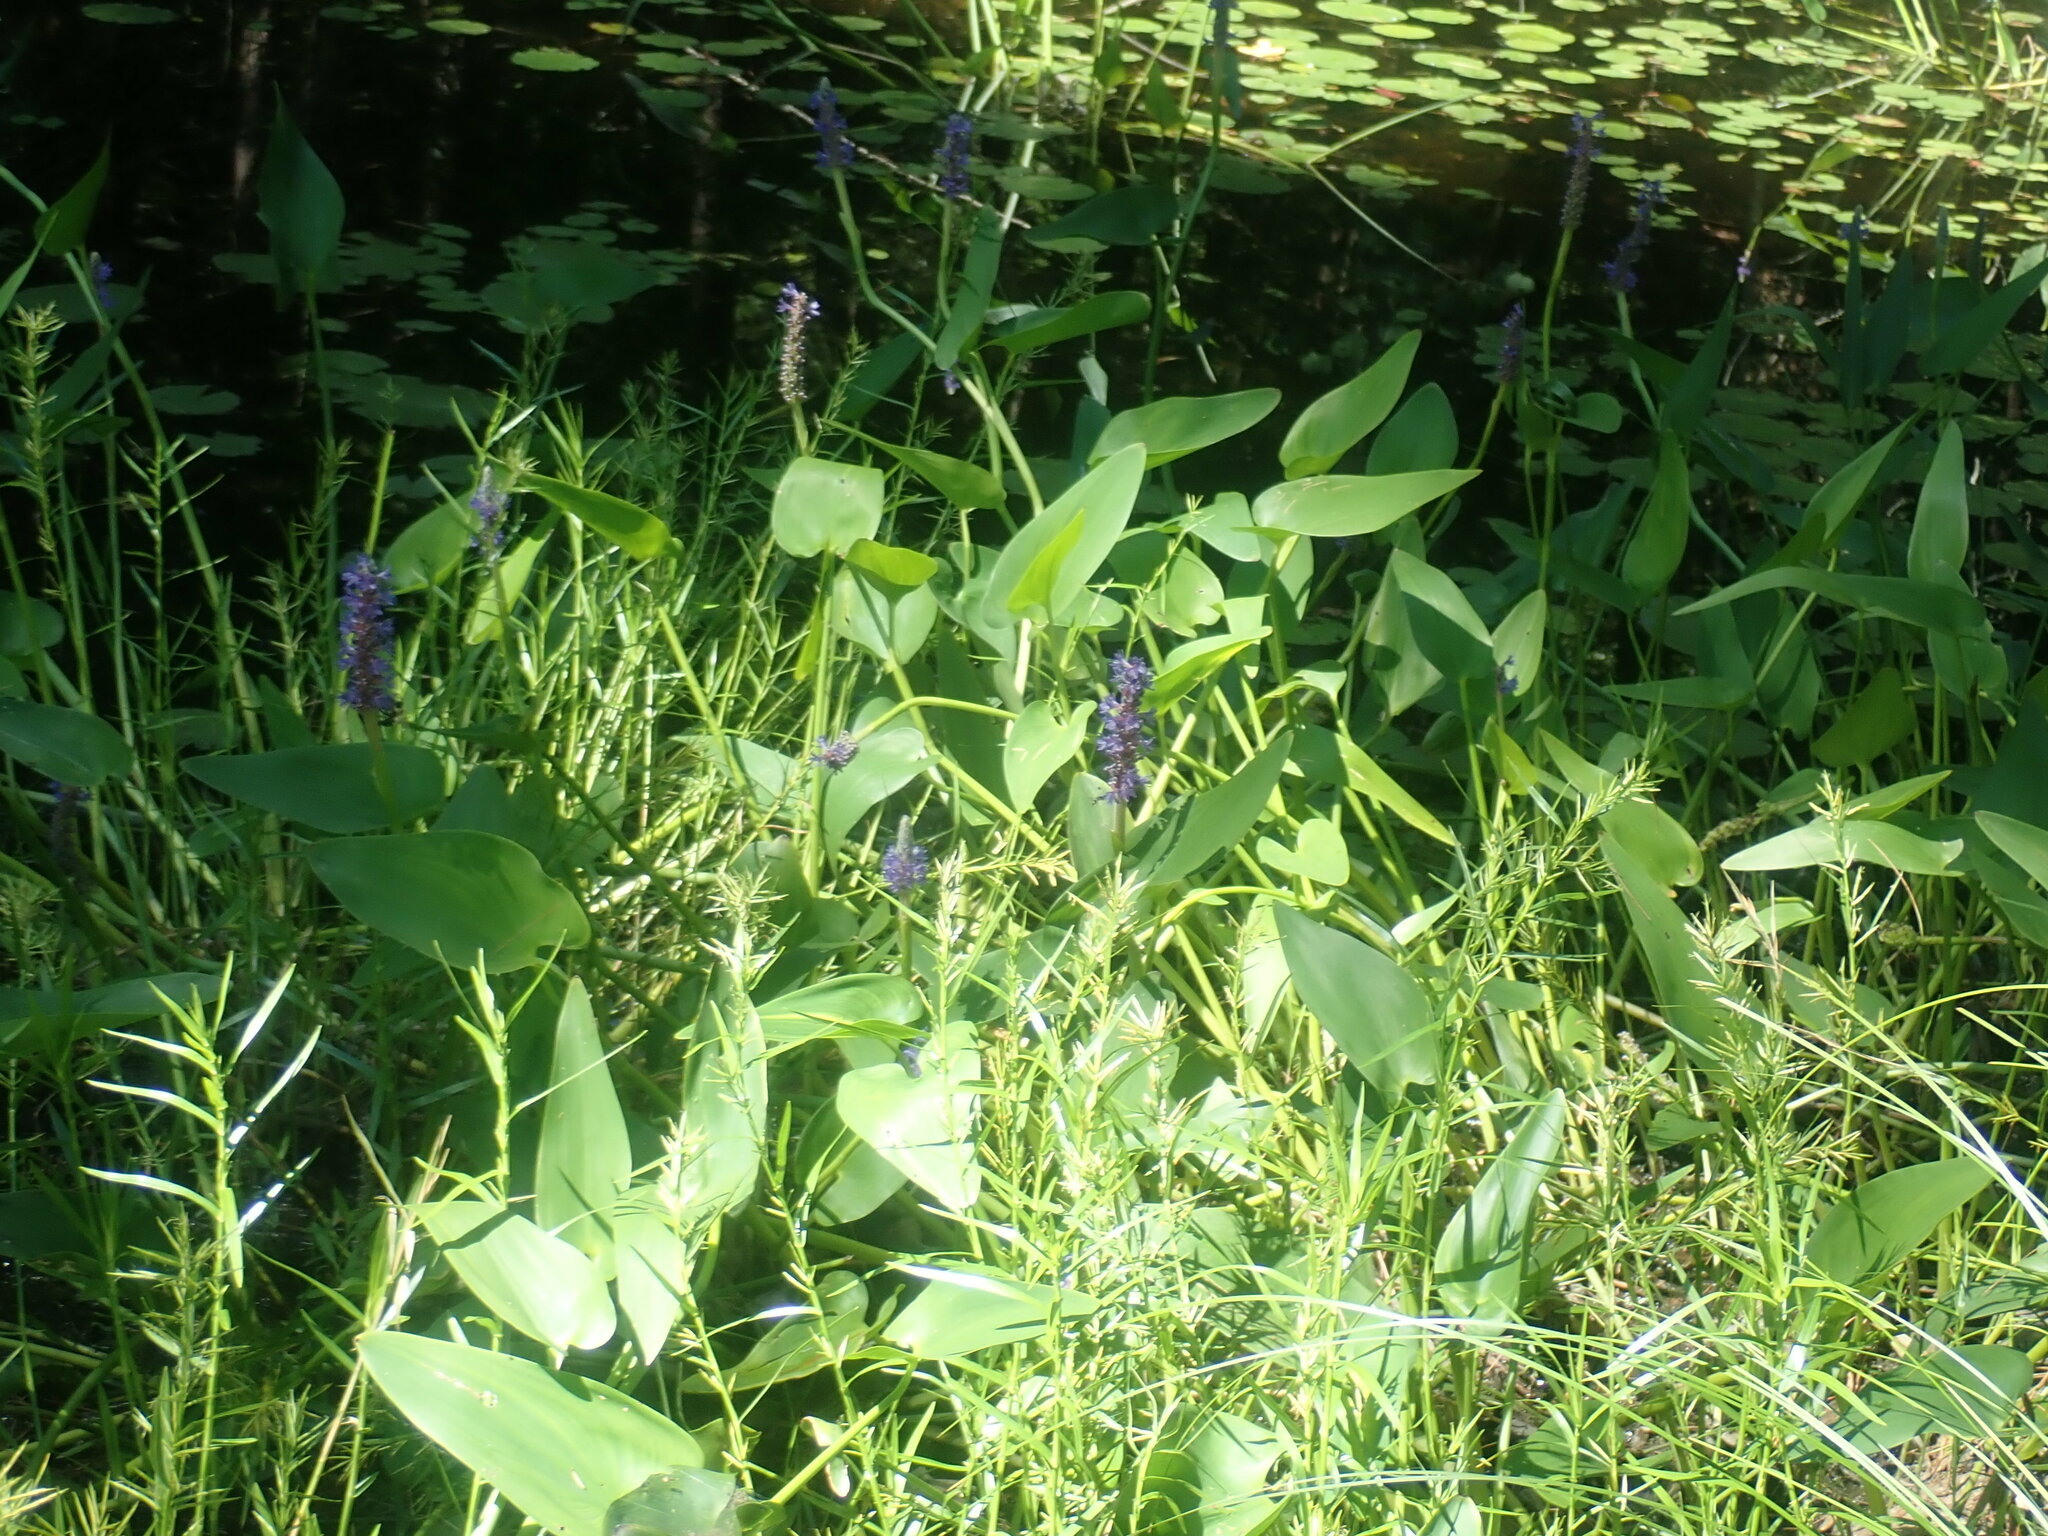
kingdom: Plantae
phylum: Tracheophyta
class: Liliopsida
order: Commelinales
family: Pontederiaceae
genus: Pontederia
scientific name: Pontederia cordata
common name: Pickerelweed
